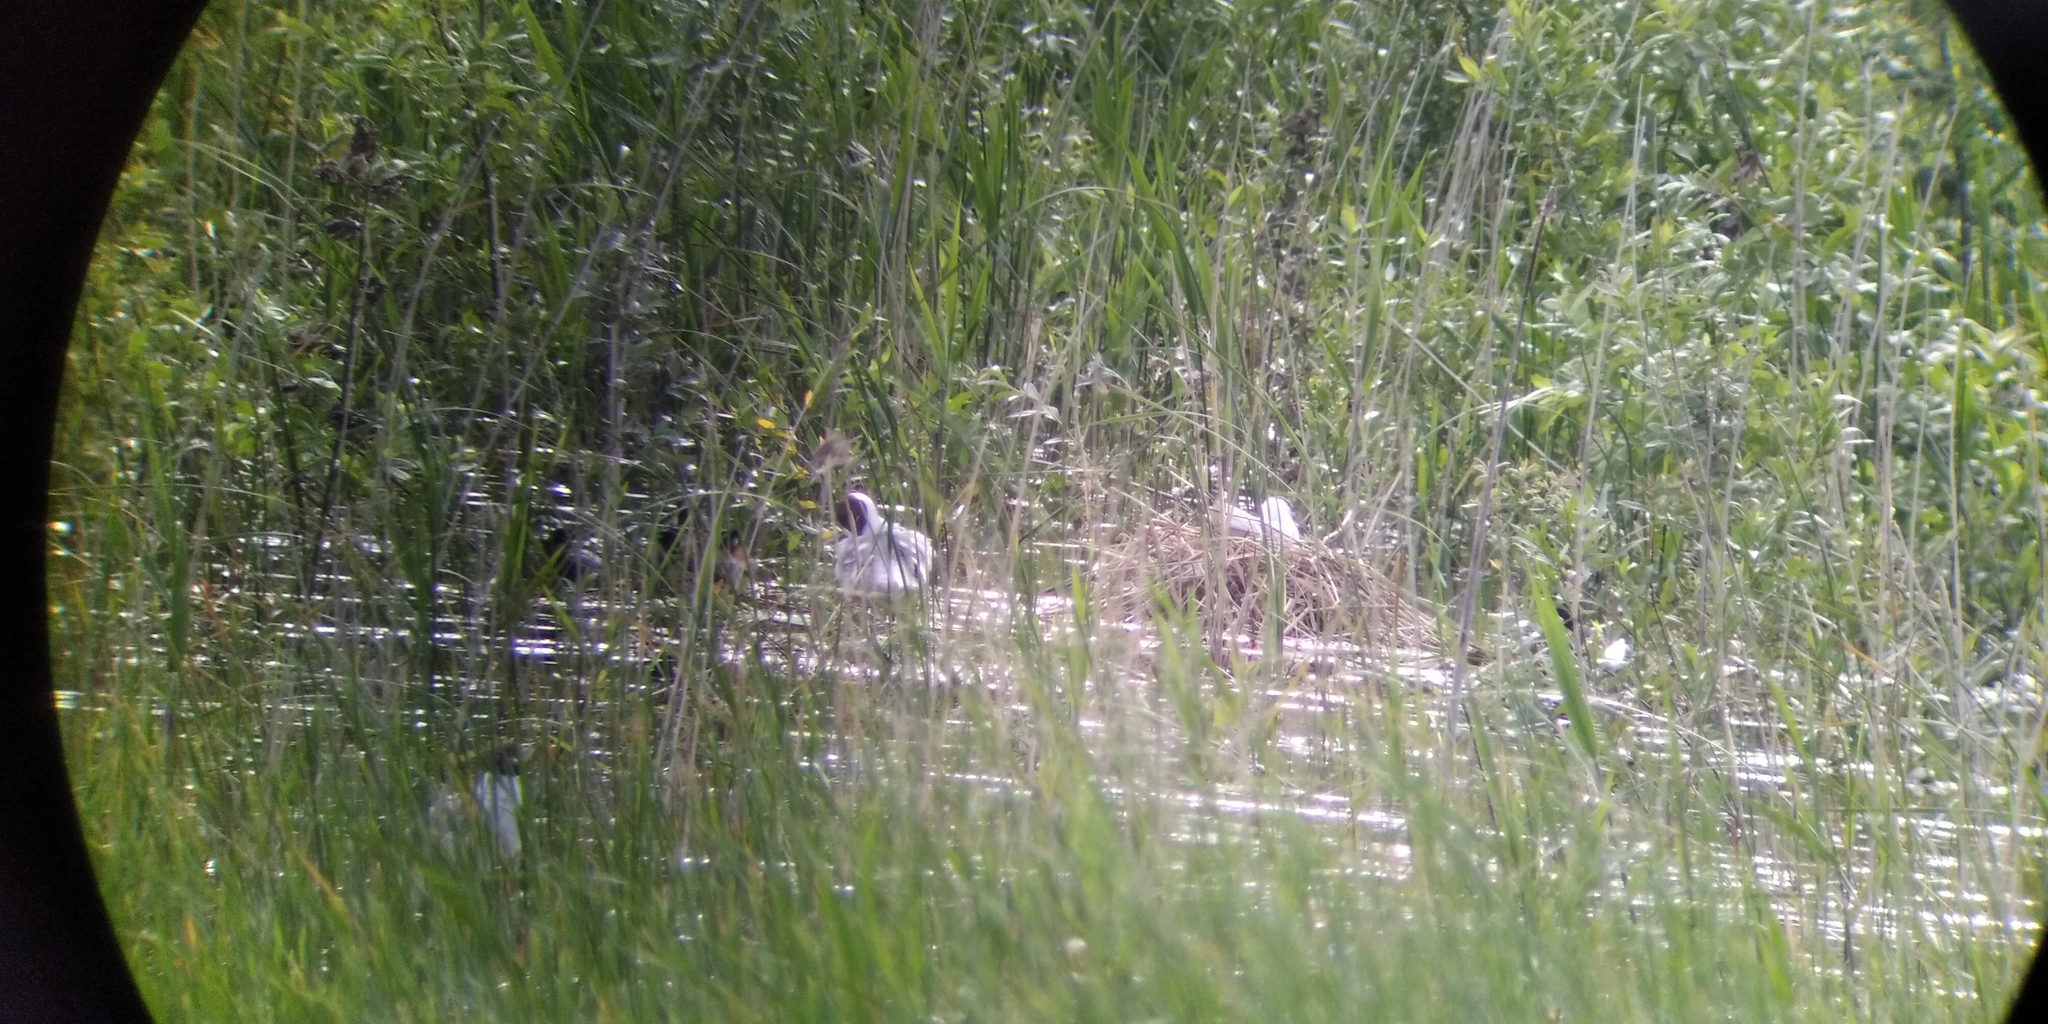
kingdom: Animalia
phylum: Chordata
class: Aves
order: Charadriiformes
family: Laridae
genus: Chroicocephalus
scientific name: Chroicocephalus ridibundus
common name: Black-headed gull
